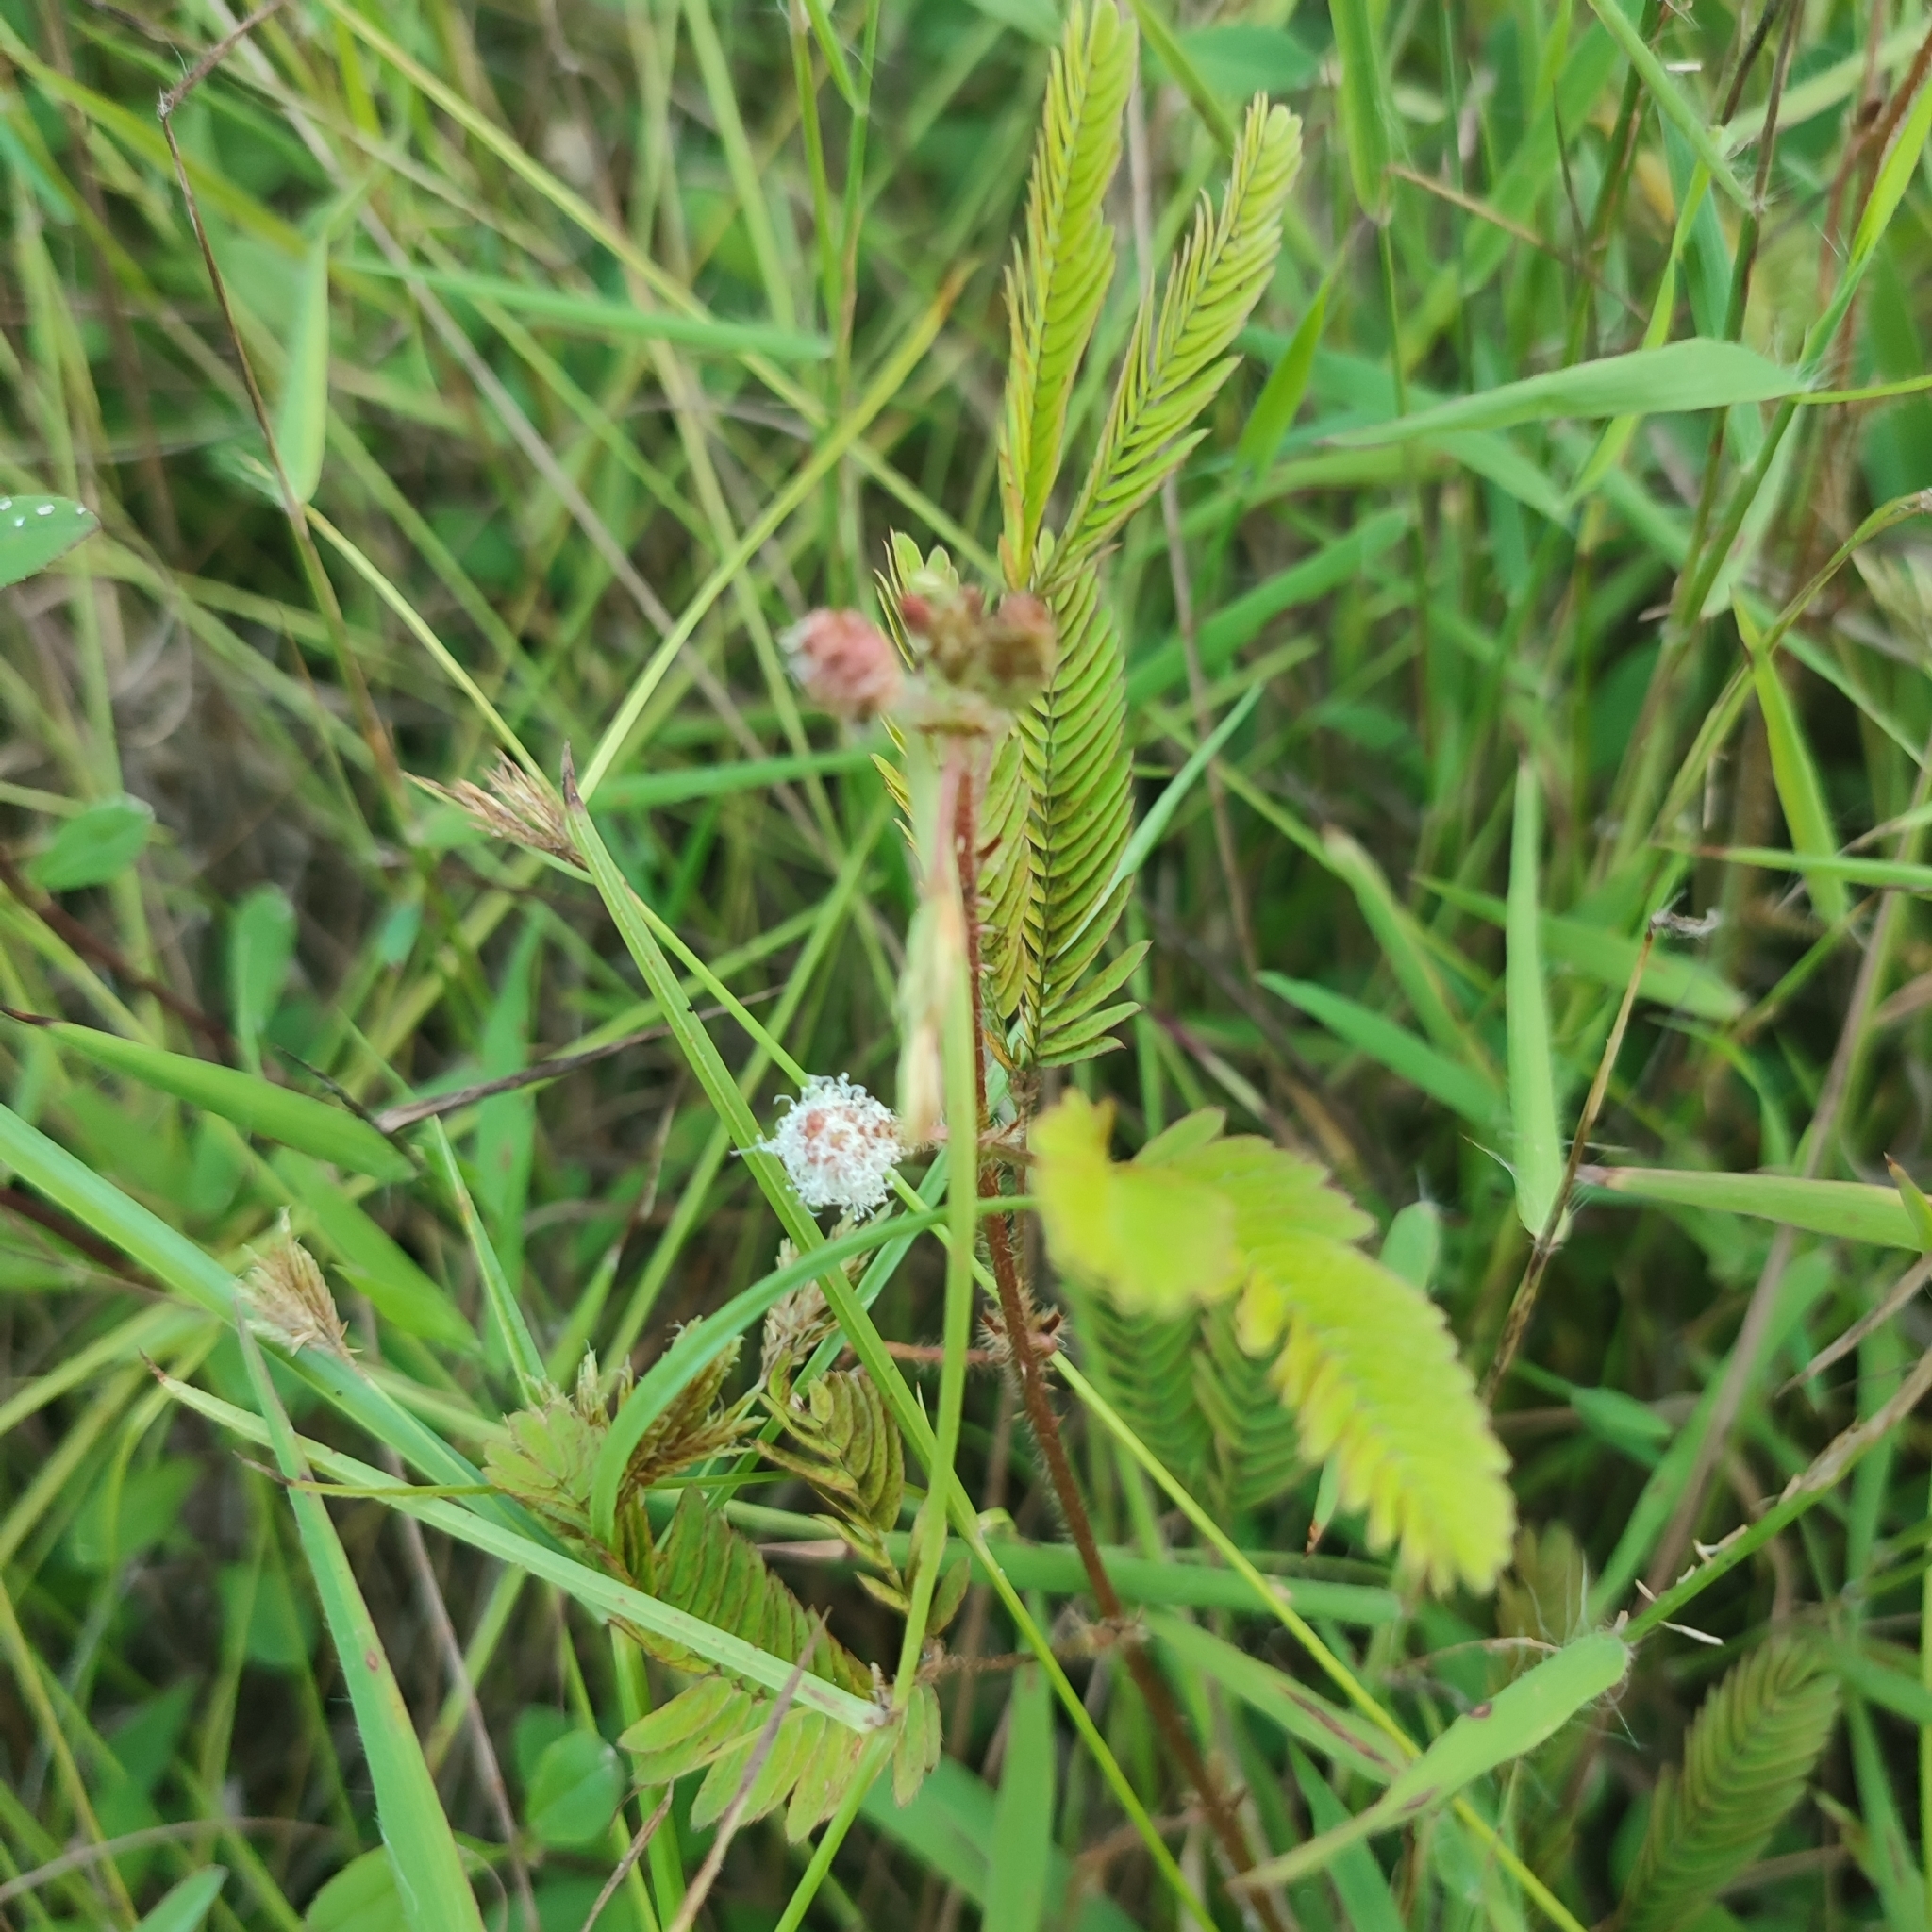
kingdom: Plantae
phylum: Tracheophyta
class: Magnoliopsida
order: Fabales
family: Fabaceae
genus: Mimosa
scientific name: Mimosa pudica
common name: Sensitive plant
